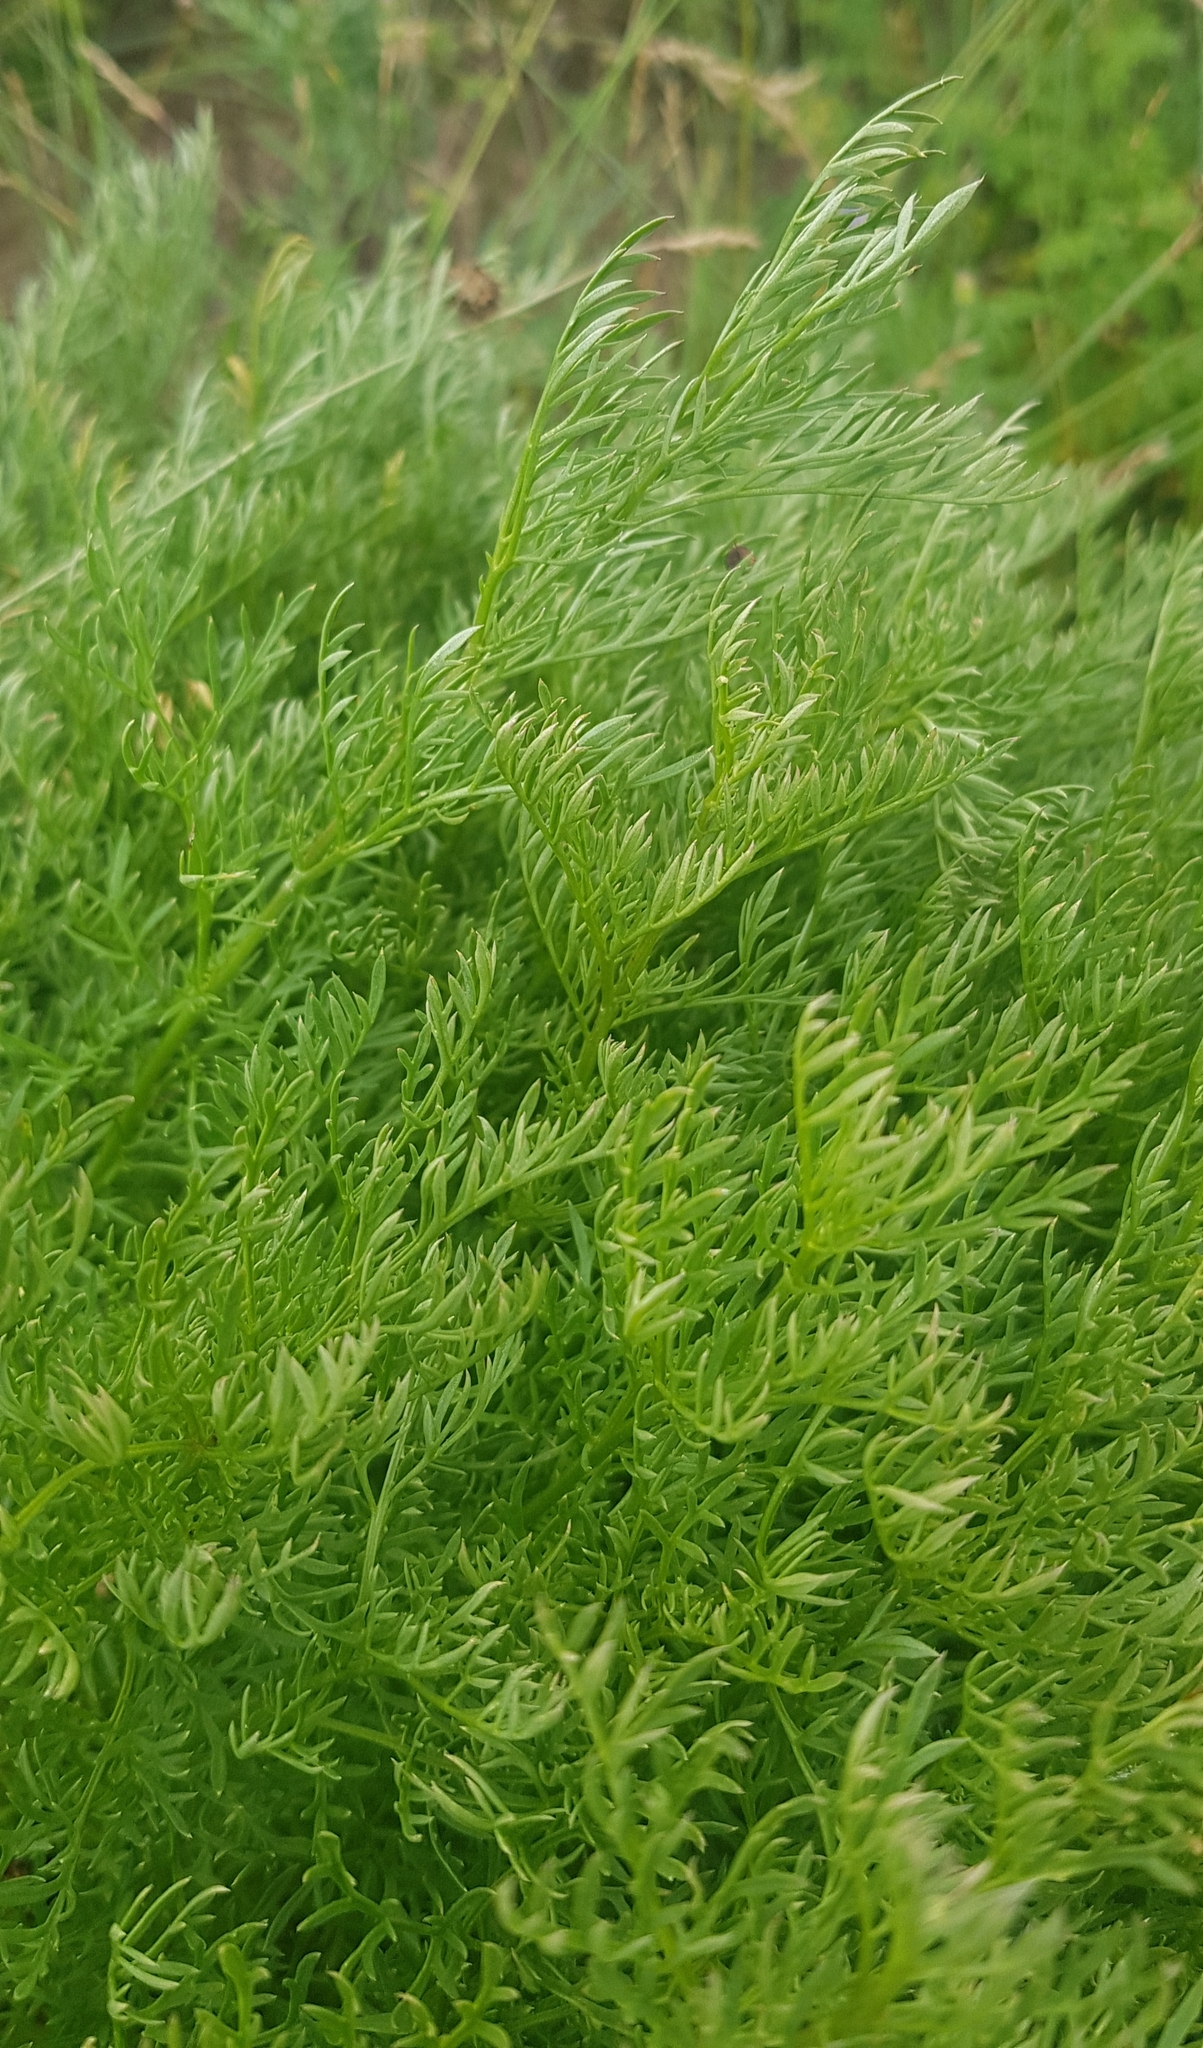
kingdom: Plantae
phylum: Tracheophyta
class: Magnoliopsida
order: Ranunculales
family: Ranunculaceae
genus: Adonis
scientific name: Adonis
